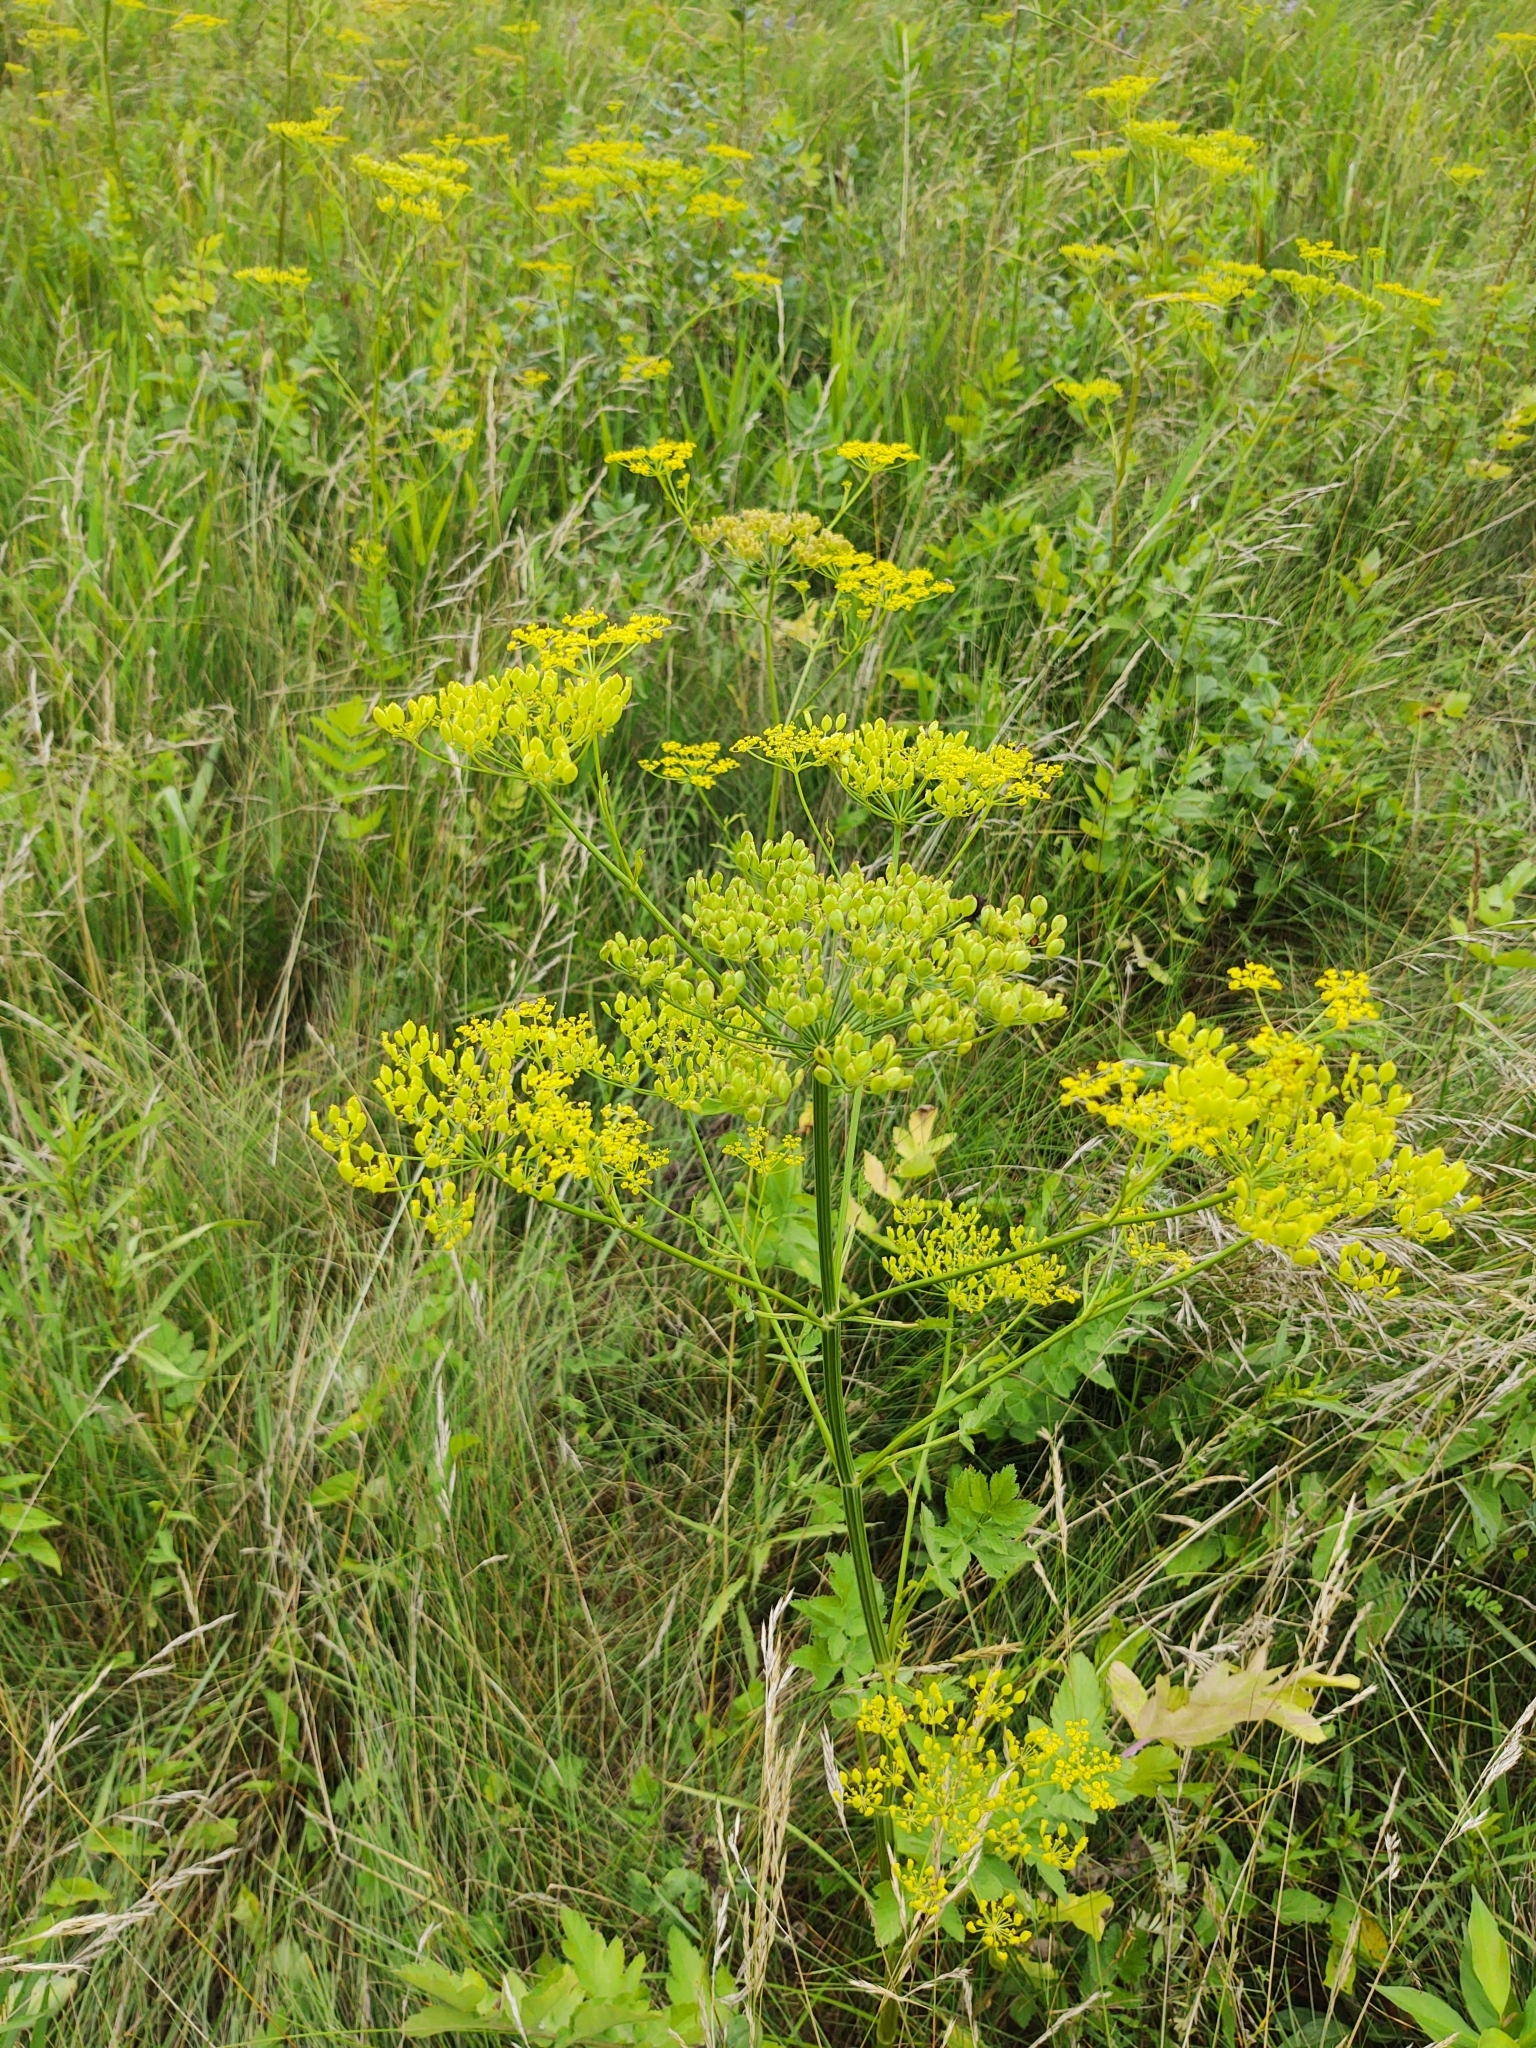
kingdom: Plantae
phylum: Tracheophyta
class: Magnoliopsida
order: Apiales
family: Apiaceae
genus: Pastinaca
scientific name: Pastinaca sativa
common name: Wild parsnip
